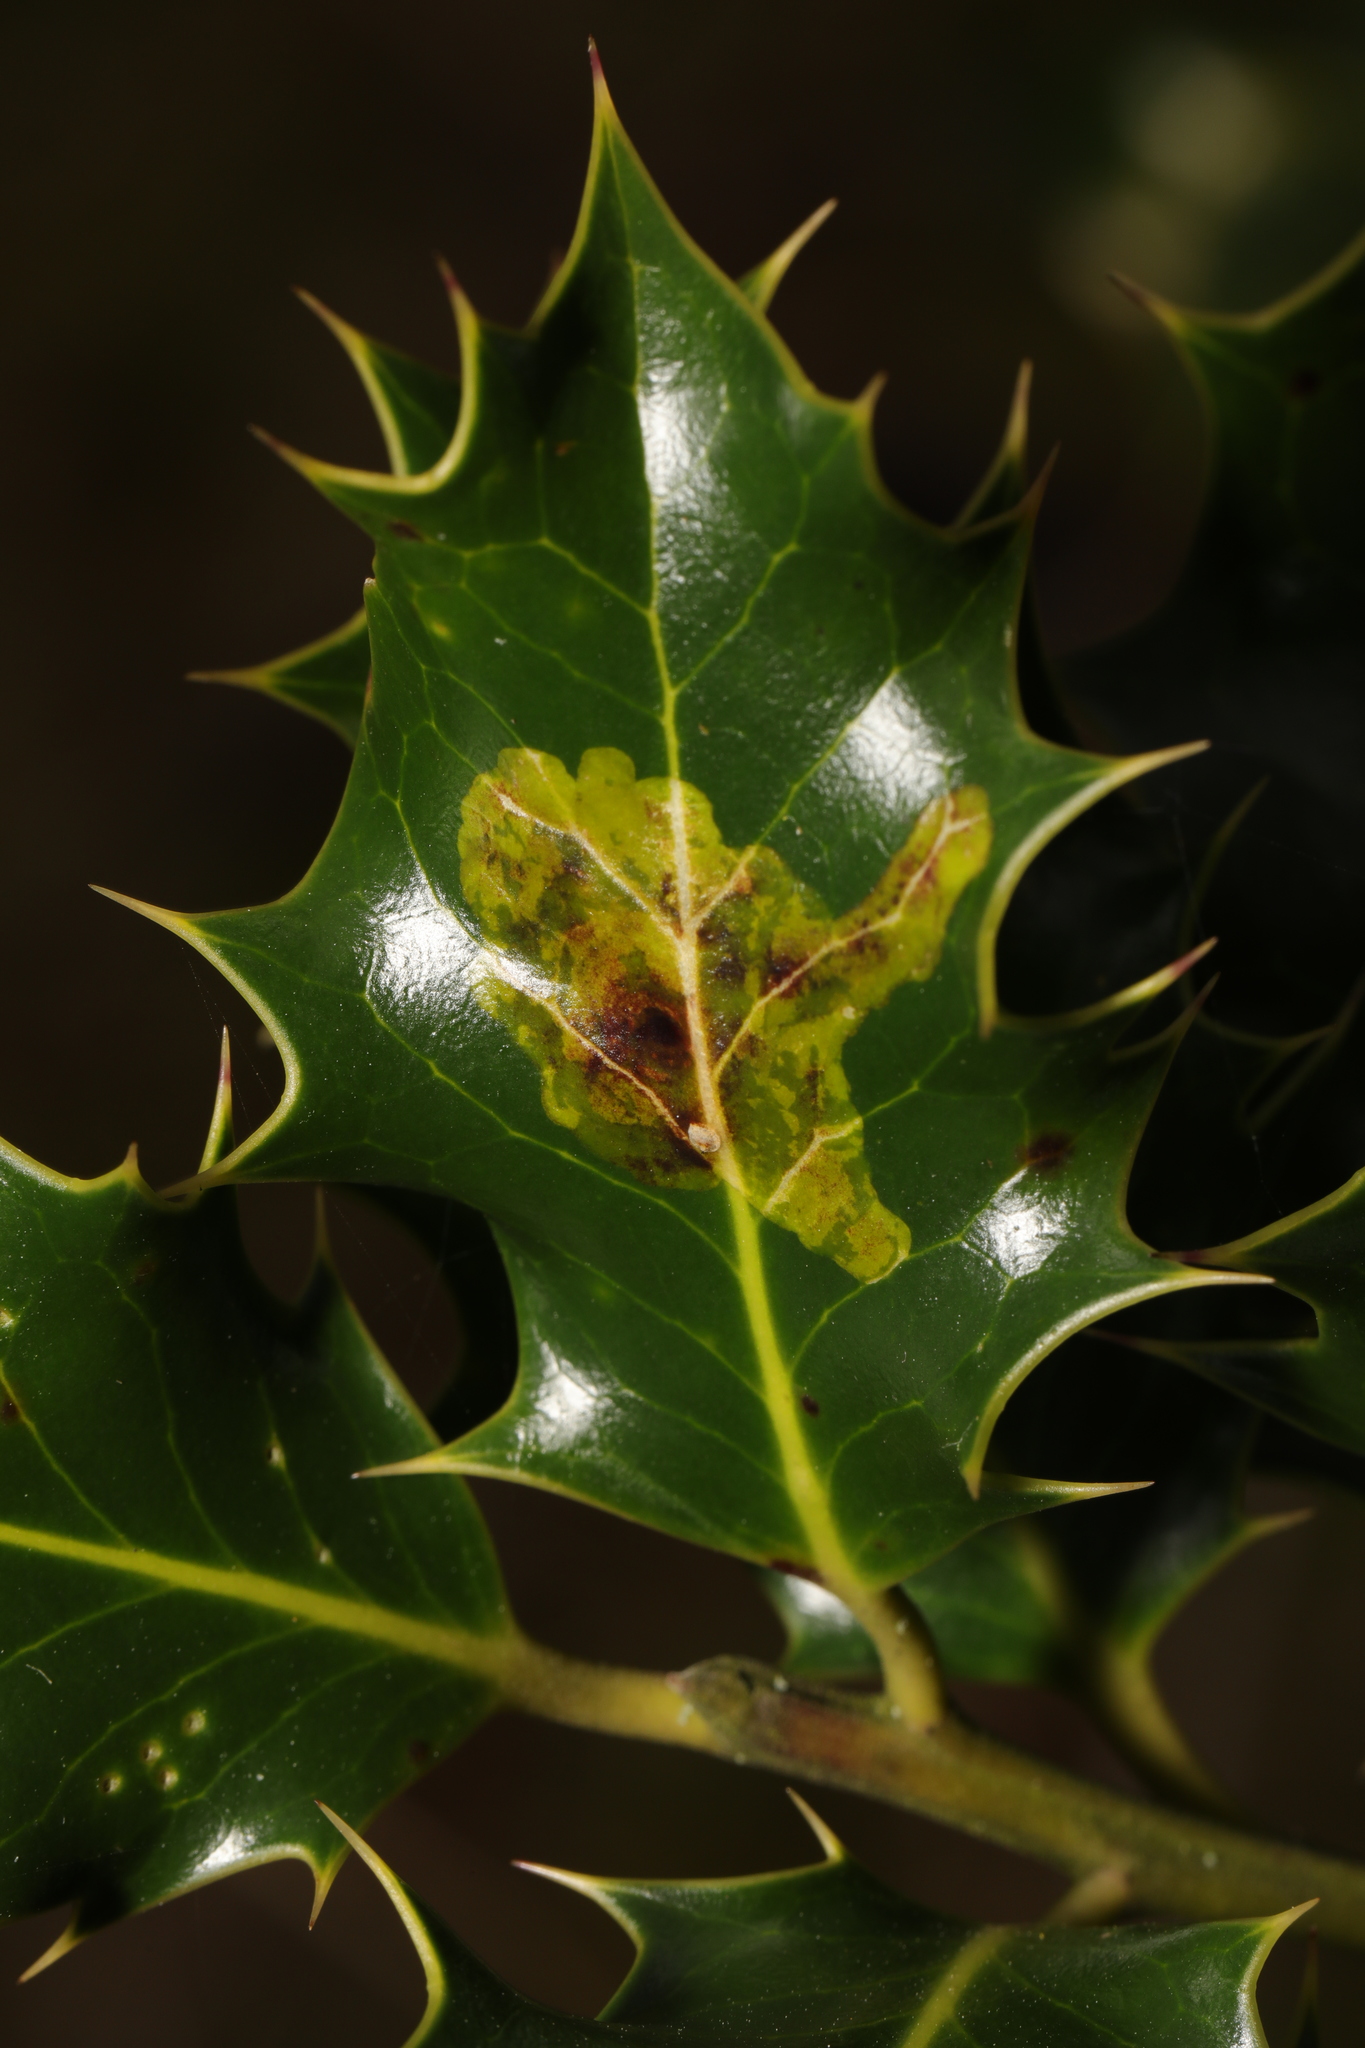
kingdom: Animalia
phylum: Arthropoda
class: Insecta
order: Diptera
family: Agromyzidae
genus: Phytomyza
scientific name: Phytomyza ilicis
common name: Holly leafminer
